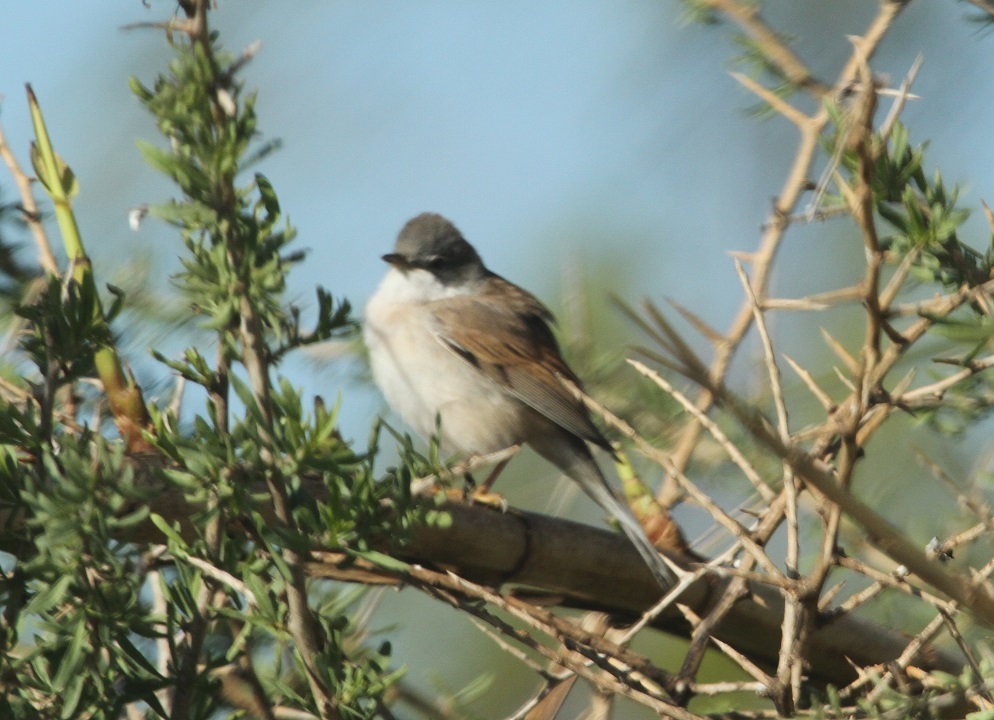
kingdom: Animalia
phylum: Chordata
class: Aves
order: Passeriformes
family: Sylviidae
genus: Sylvia
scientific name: Sylvia conspicillata
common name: Spectacled warbler
